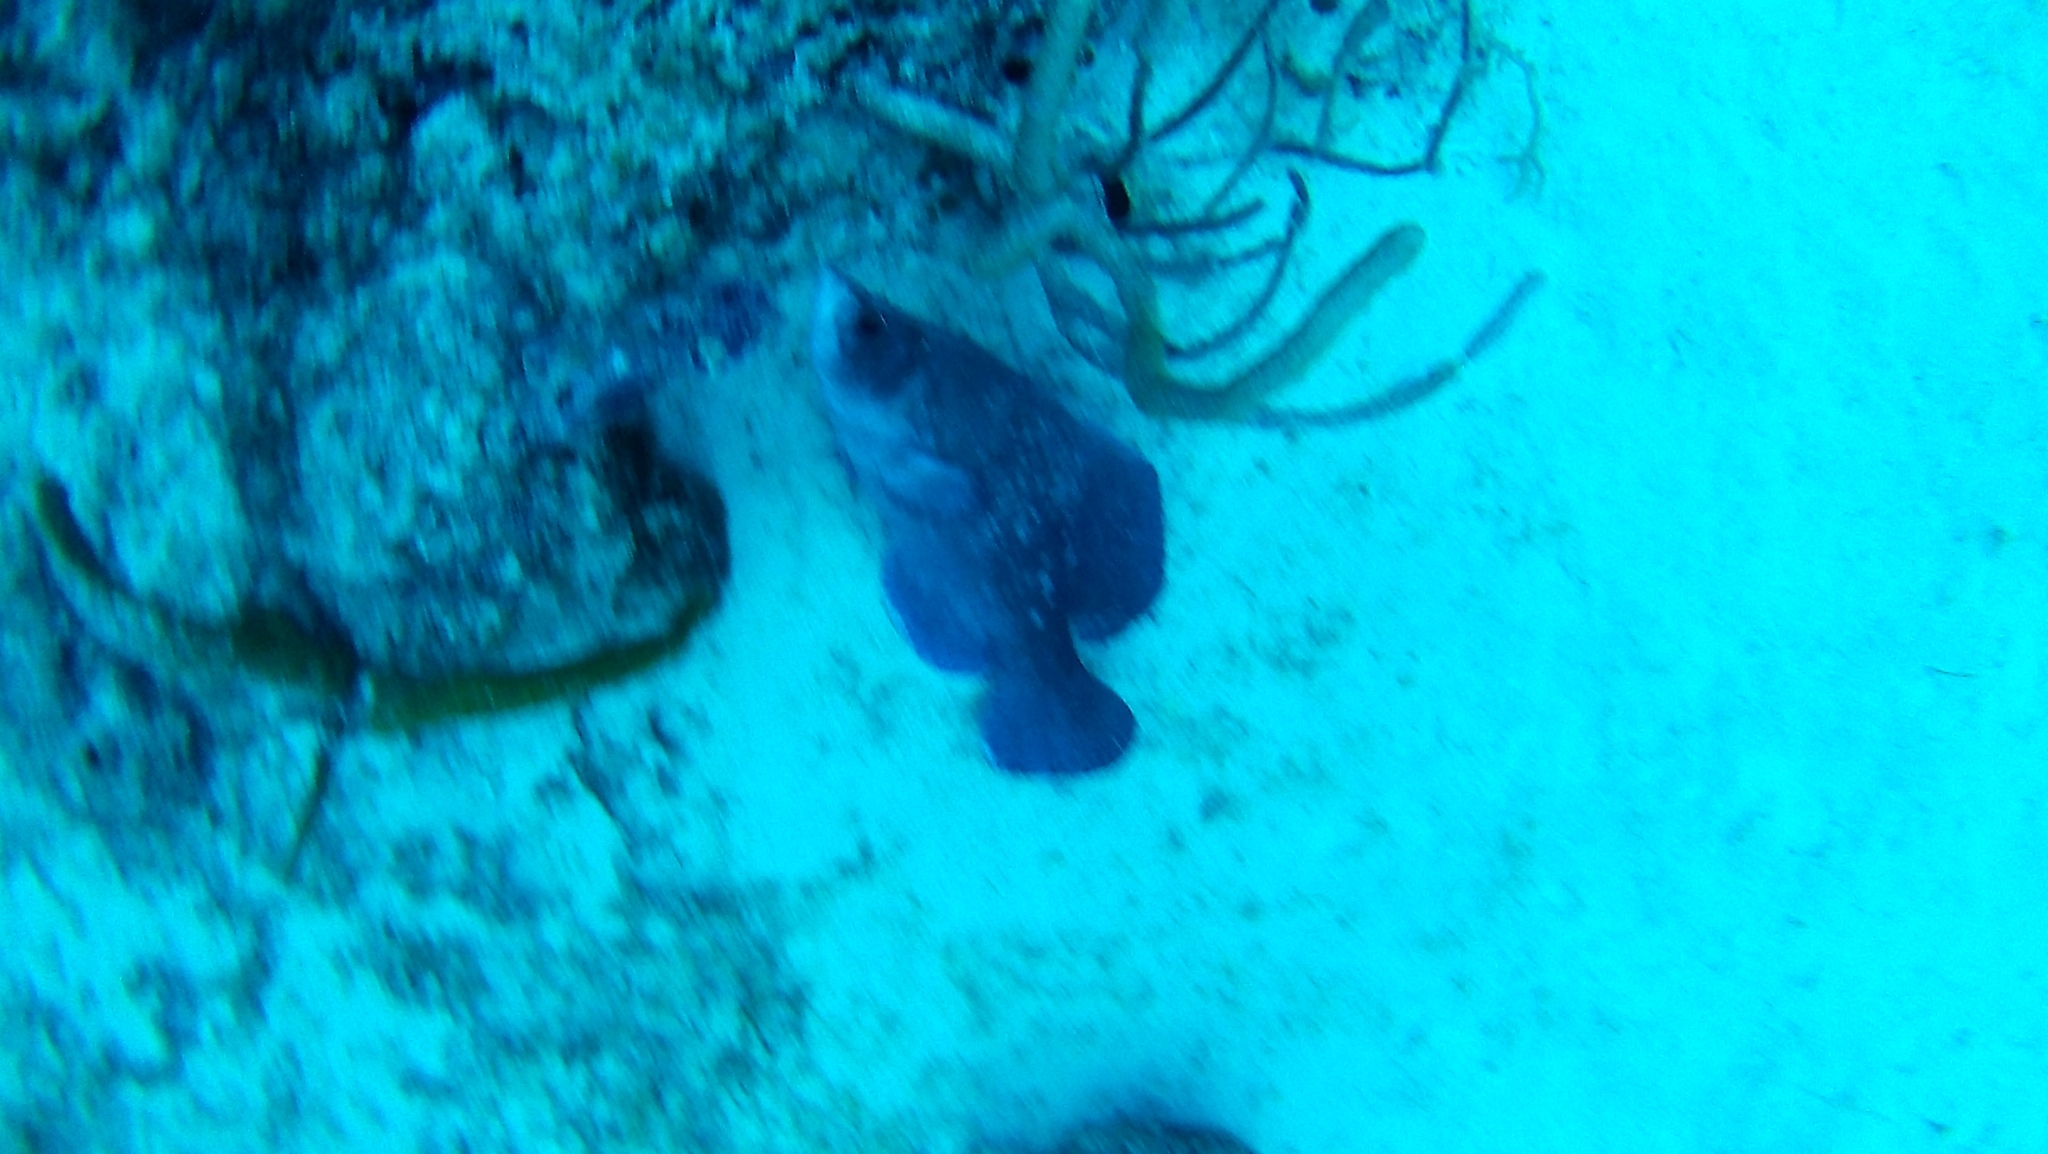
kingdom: Animalia
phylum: Chordata
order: Perciformes
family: Serranidae
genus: Rypticus
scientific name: Rypticus saponaceus
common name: Soapfish
